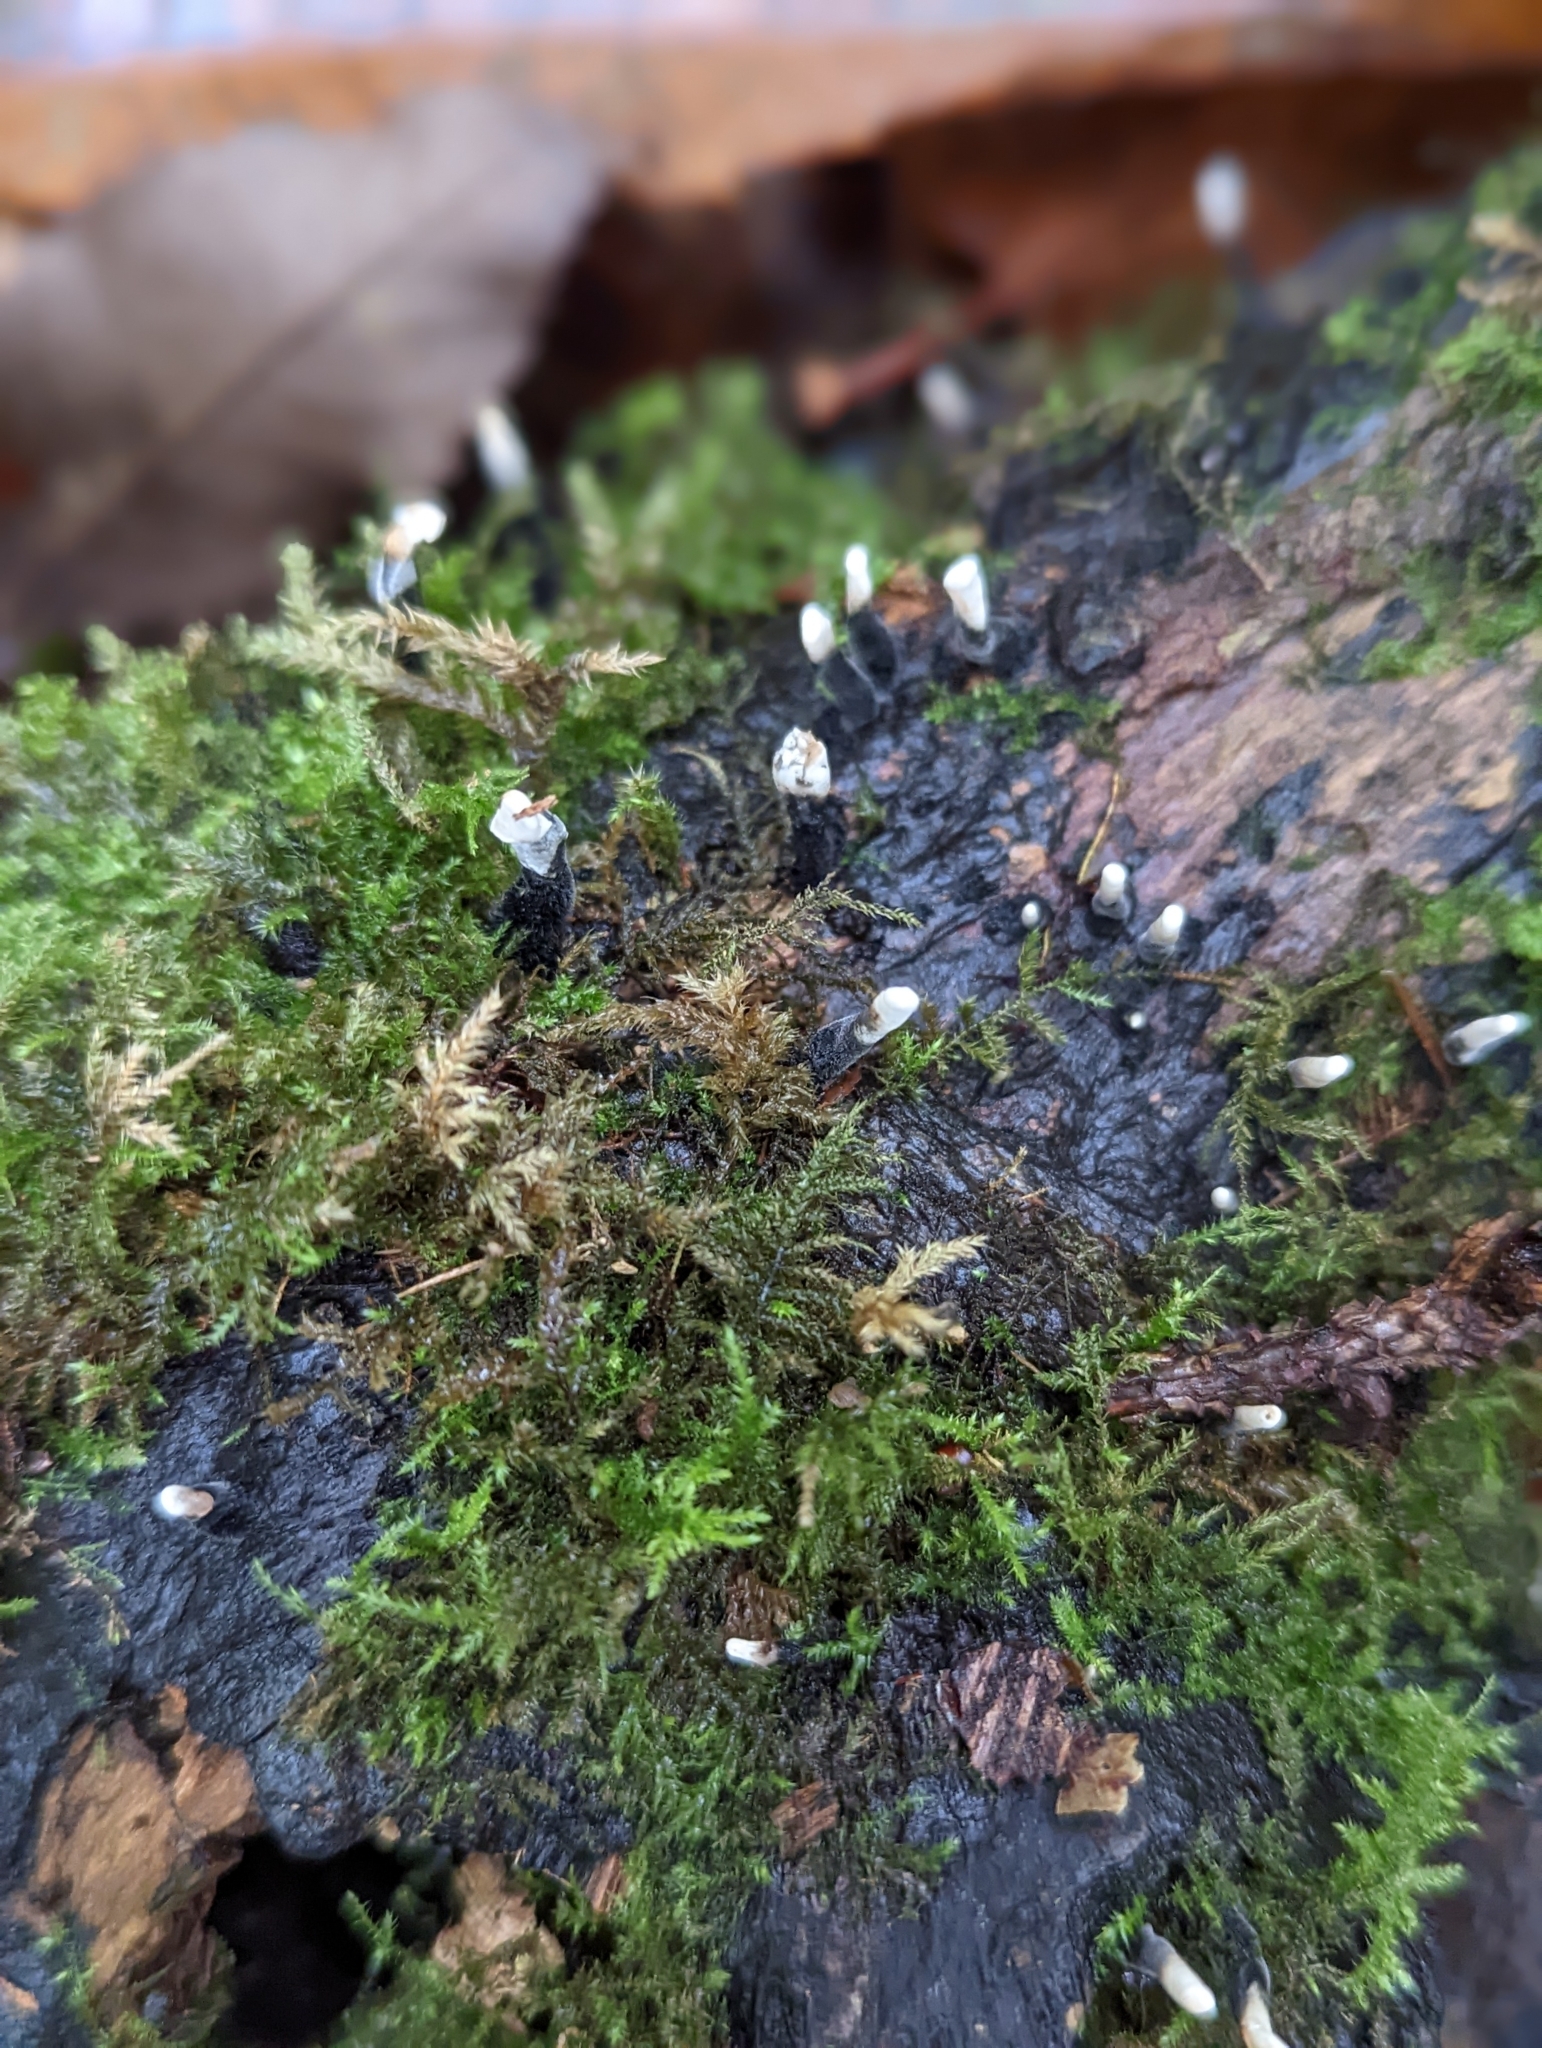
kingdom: Fungi
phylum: Ascomycota
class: Sordariomycetes
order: Xylariales
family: Xylariaceae
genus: Xylaria
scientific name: Xylaria hypoxylon
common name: Candle-snuff fungus
